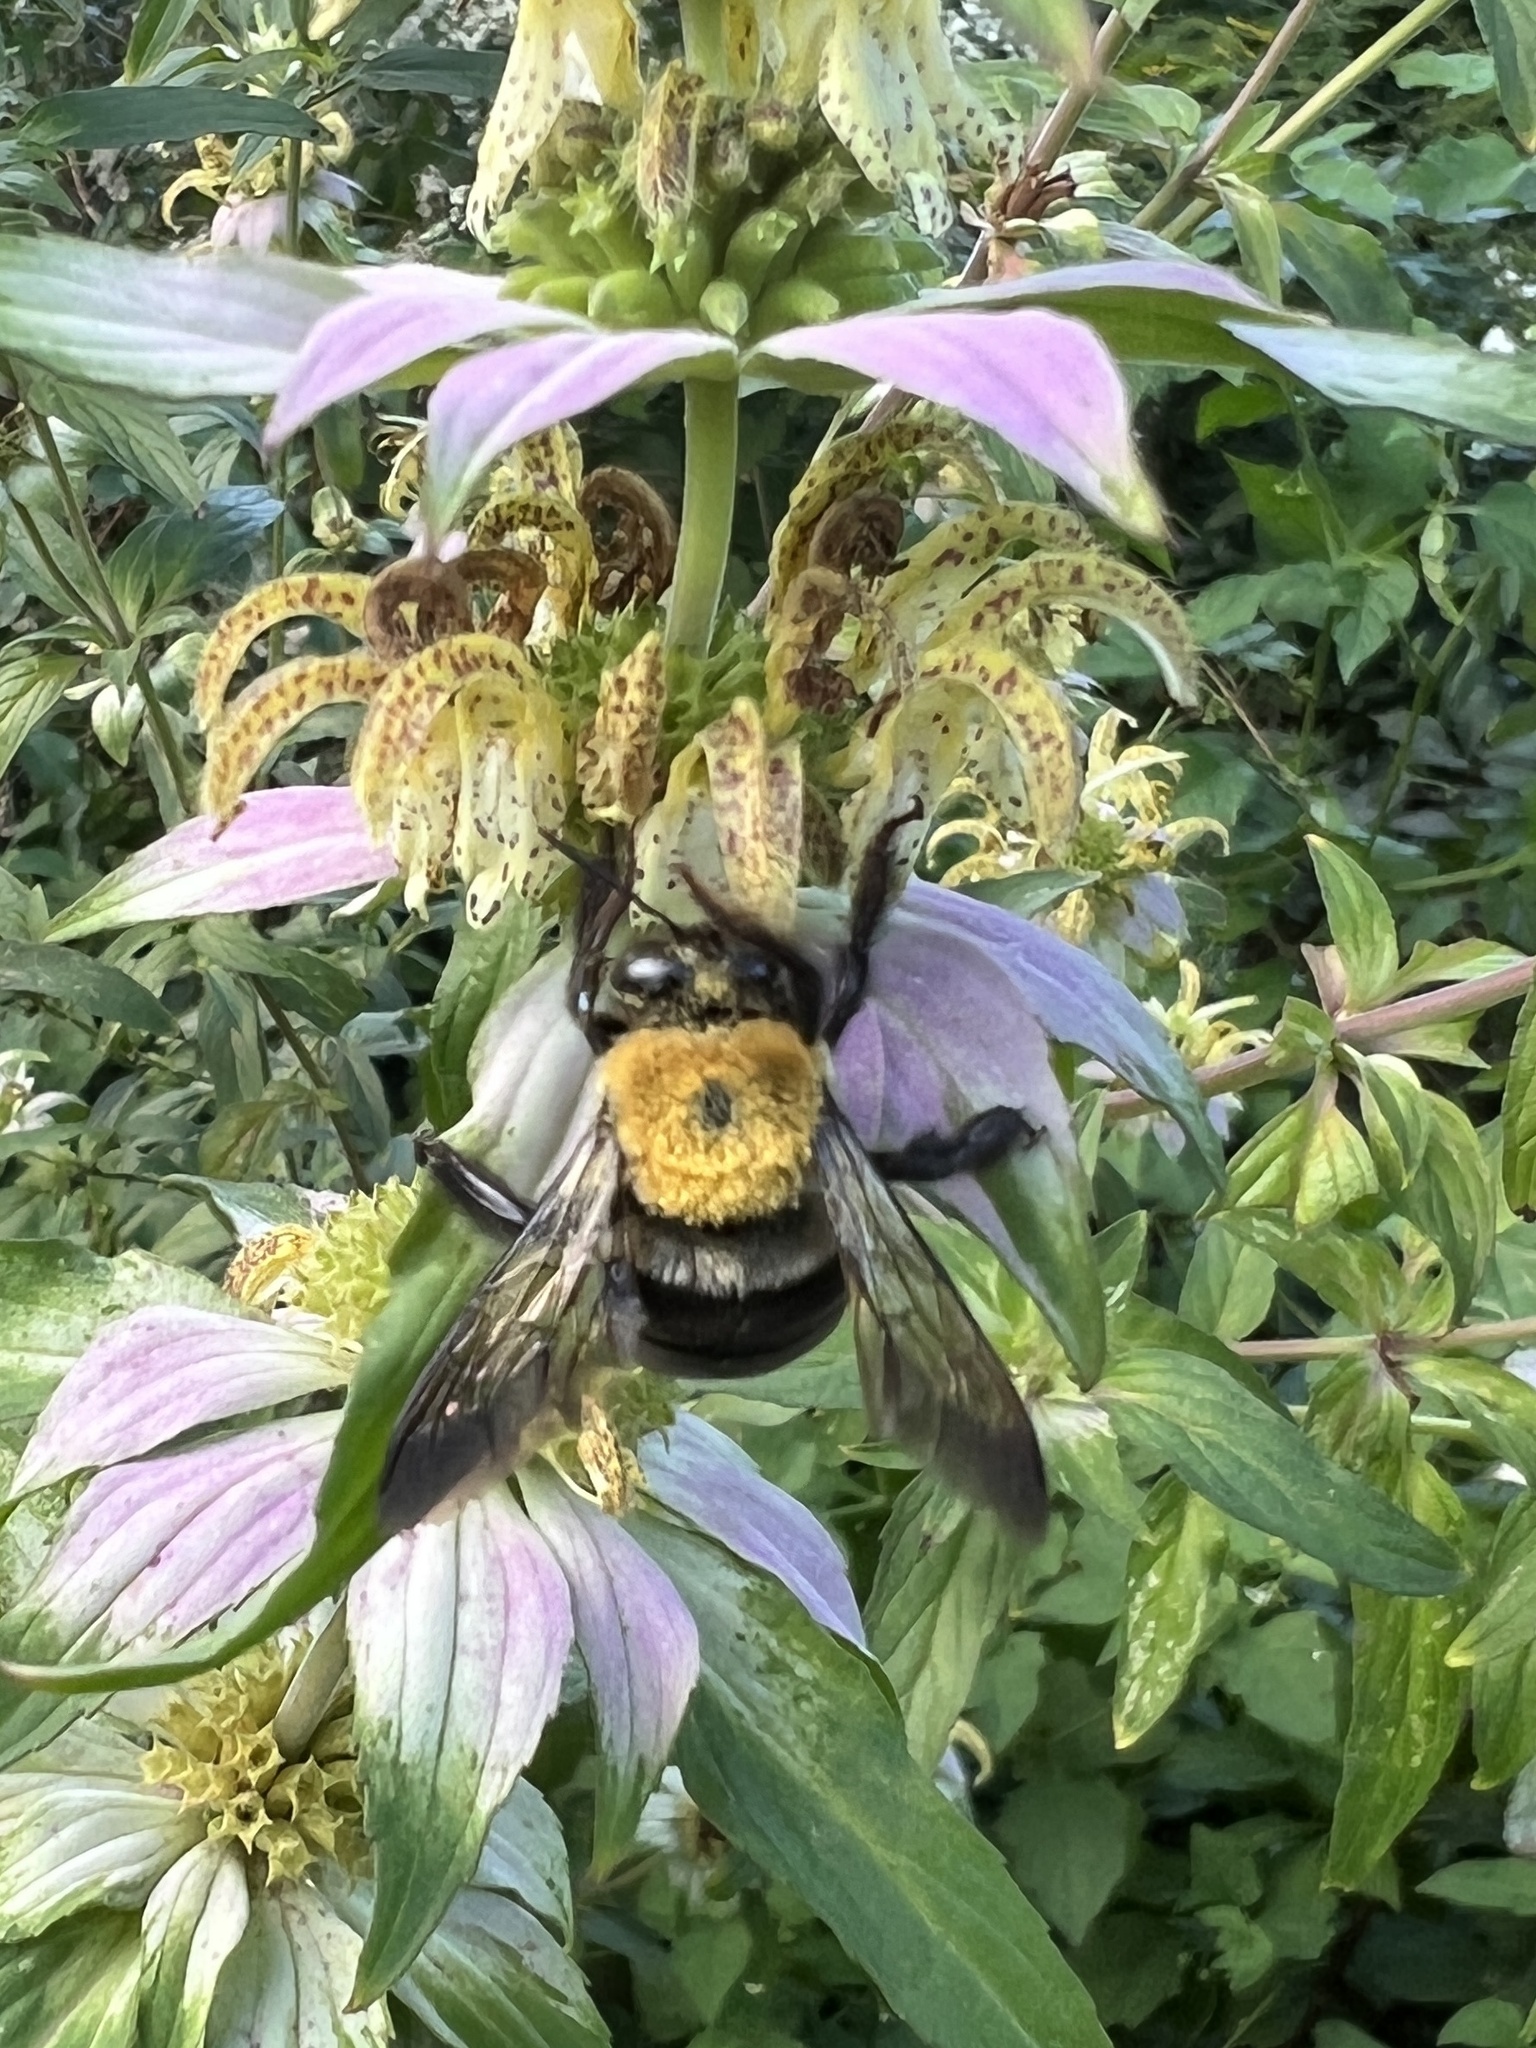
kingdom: Animalia
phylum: Arthropoda
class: Insecta
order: Hymenoptera
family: Apidae
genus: Xylocopa
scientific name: Xylocopa virginica
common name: Carpenter bee
